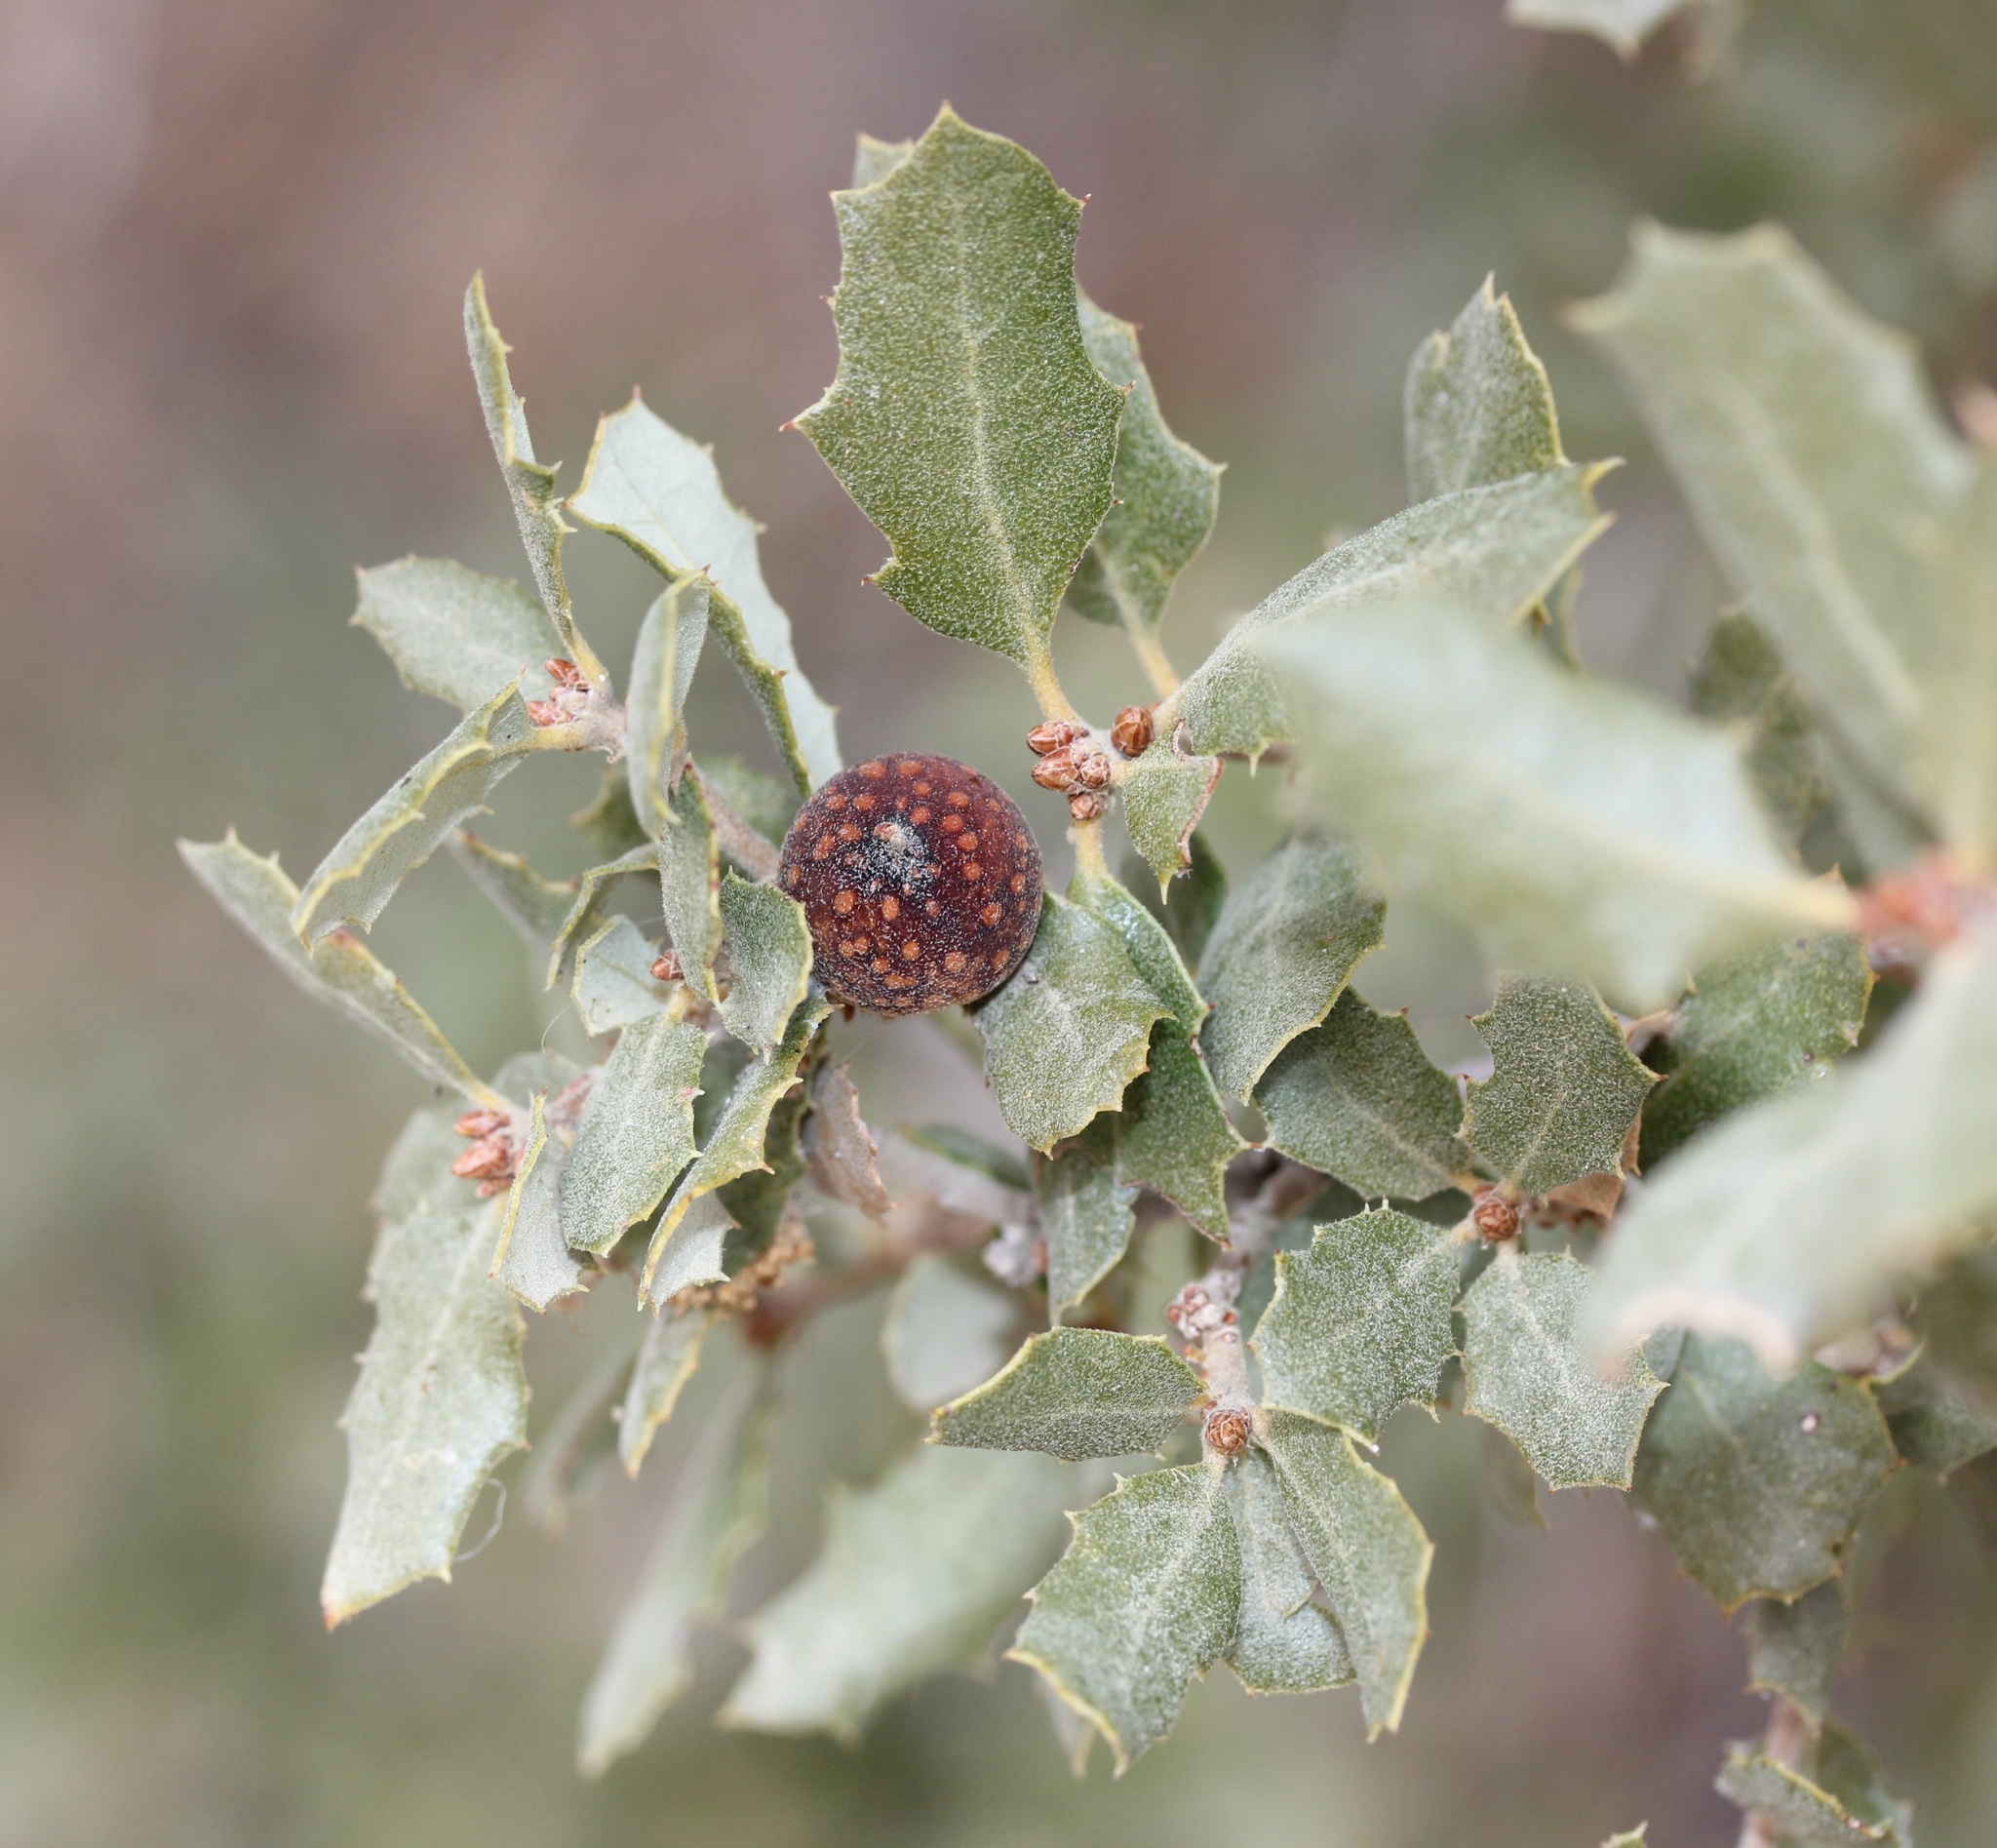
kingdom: Animalia
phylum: Arthropoda
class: Insecta
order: Hymenoptera
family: Cynipidae
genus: Burnettweldia
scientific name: Burnettweldia
